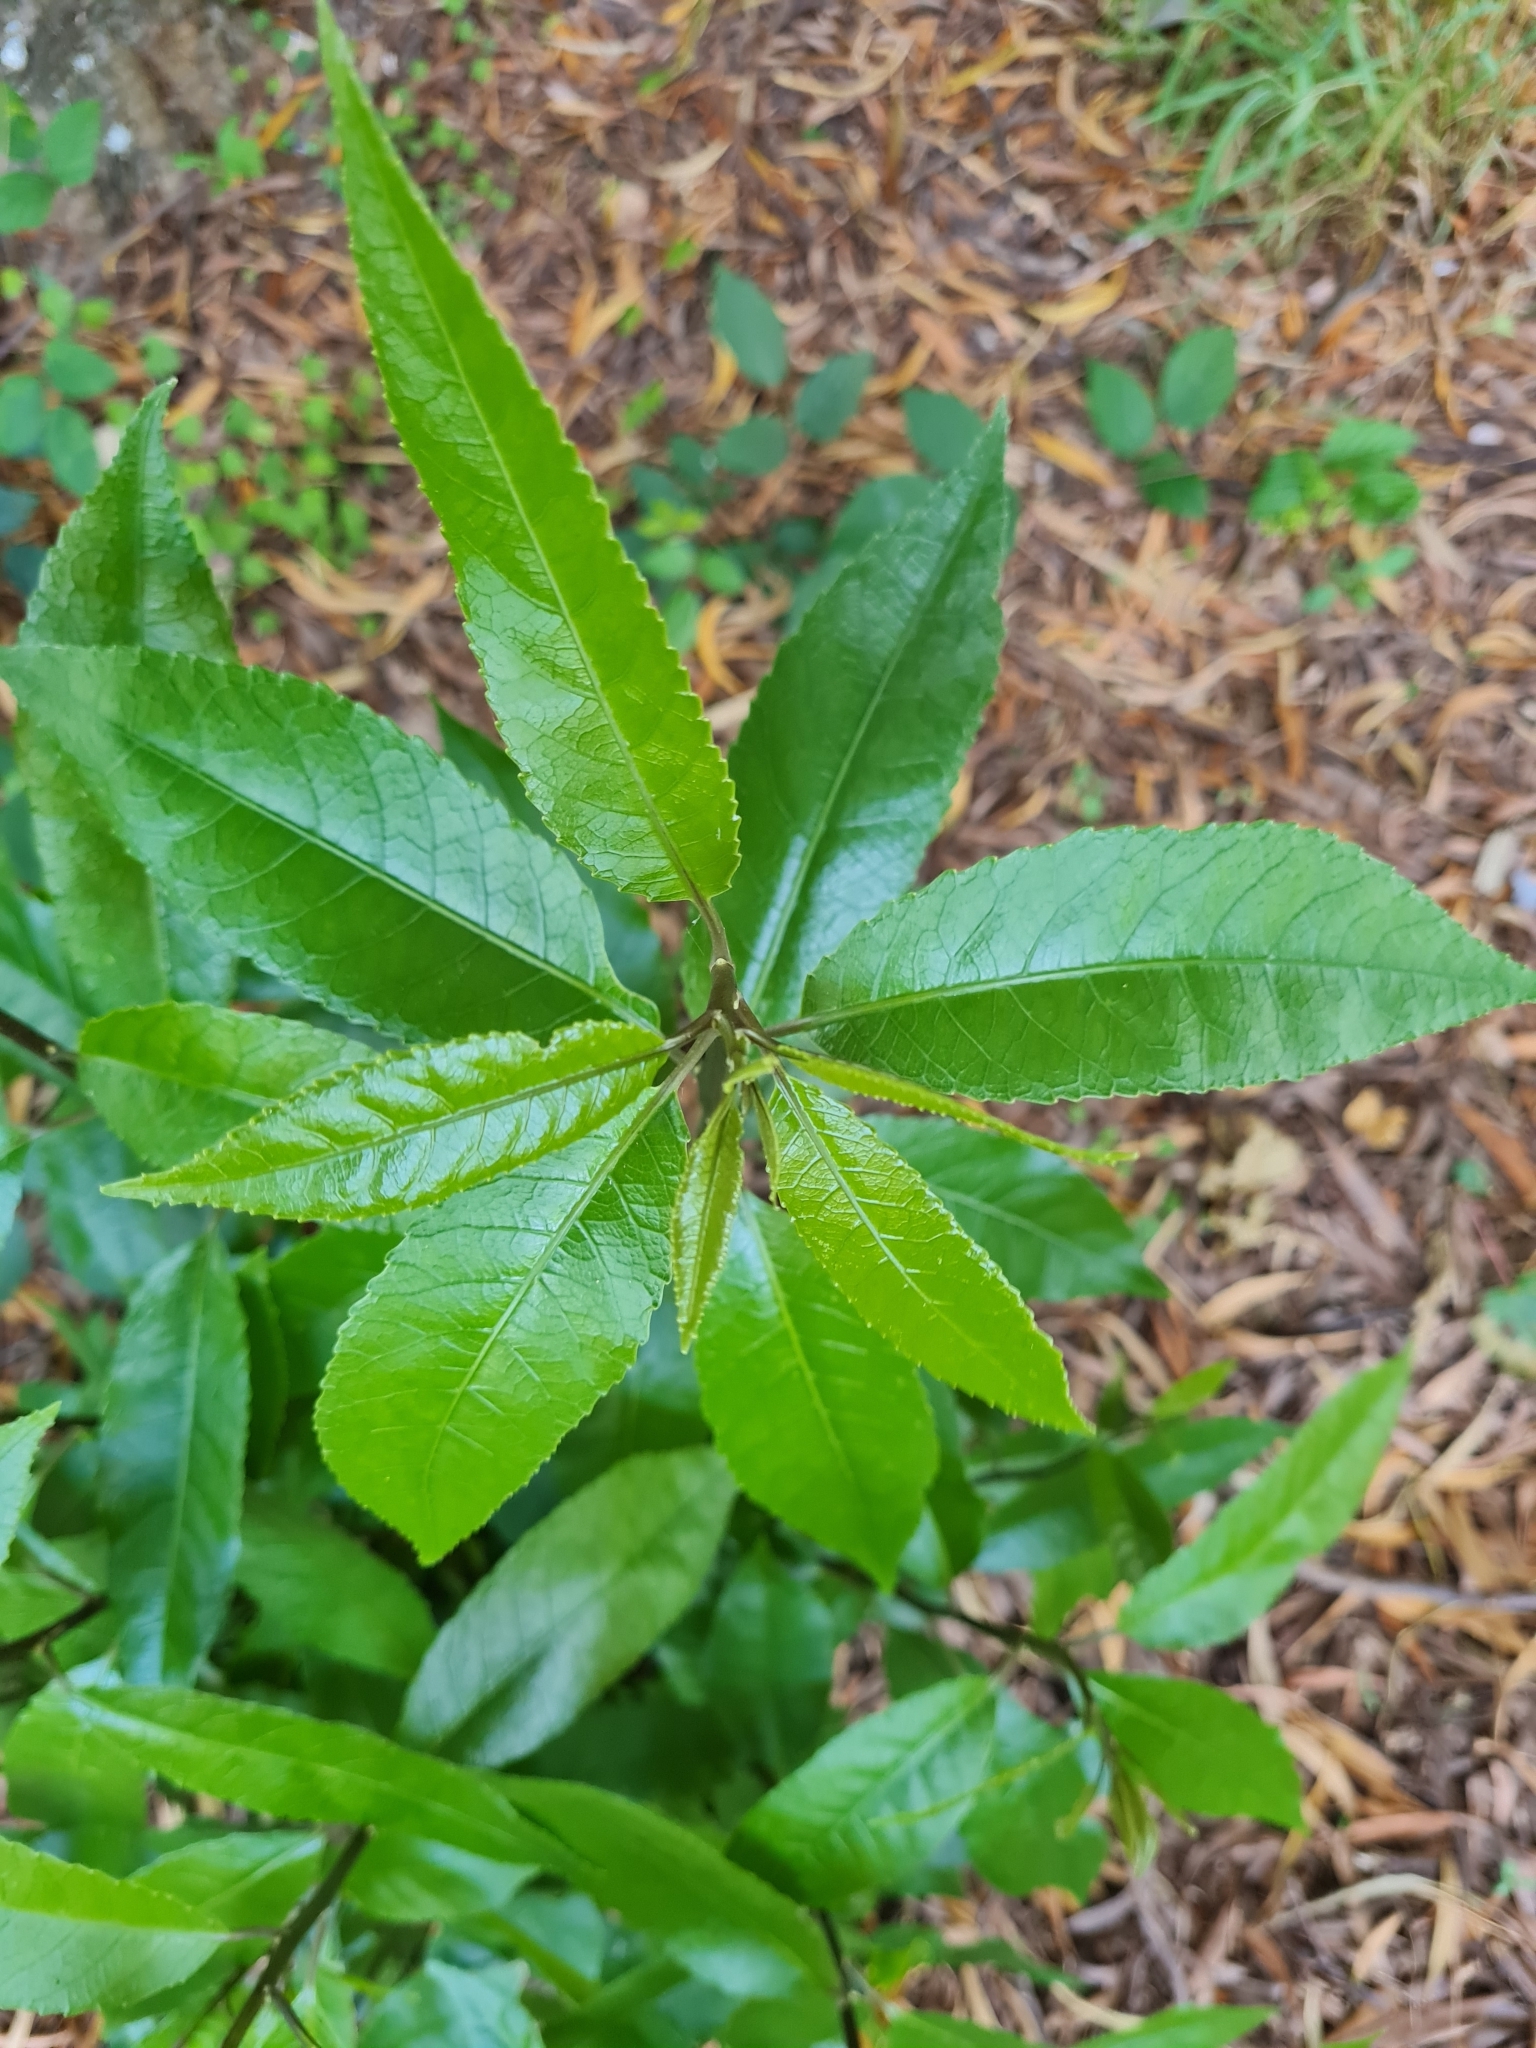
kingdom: Plantae
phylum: Tracheophyta
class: Magnoliopsida
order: Malpighiales
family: Violaceae
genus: Melicytus
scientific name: Melicytus ramiflorus
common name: Mahoe
